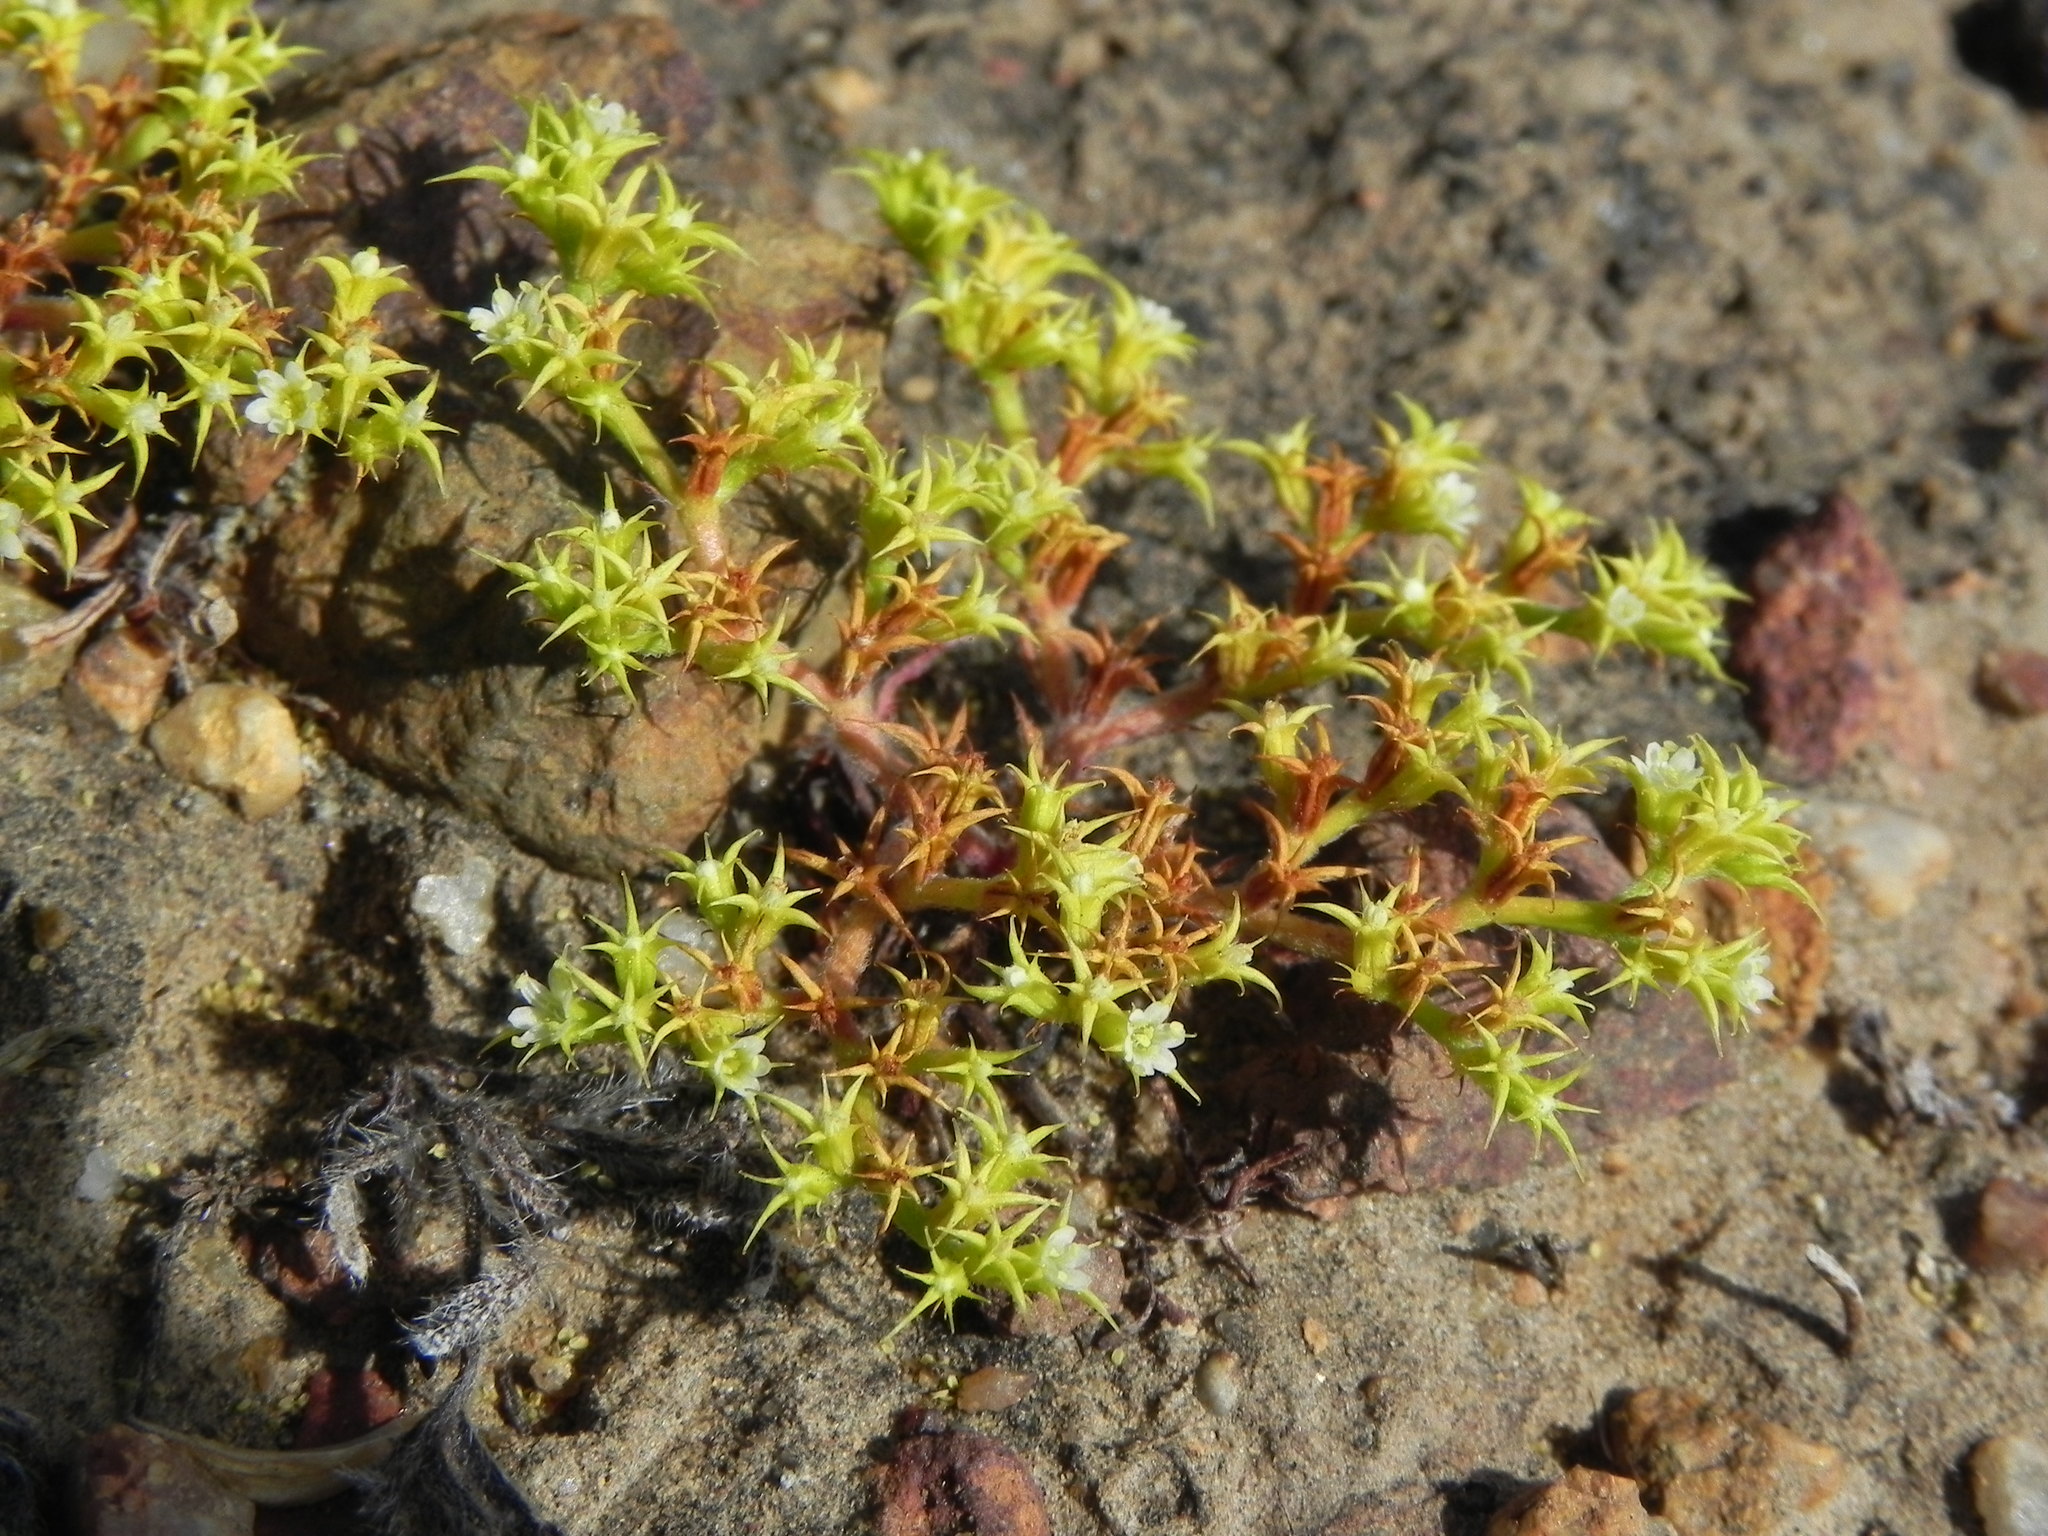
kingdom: Plantae
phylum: Tracheophyta
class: Magnoliopsida
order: Caryophyllales
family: Polygonaceae
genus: Chorizanthe
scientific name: Chorizanthe procumbens
